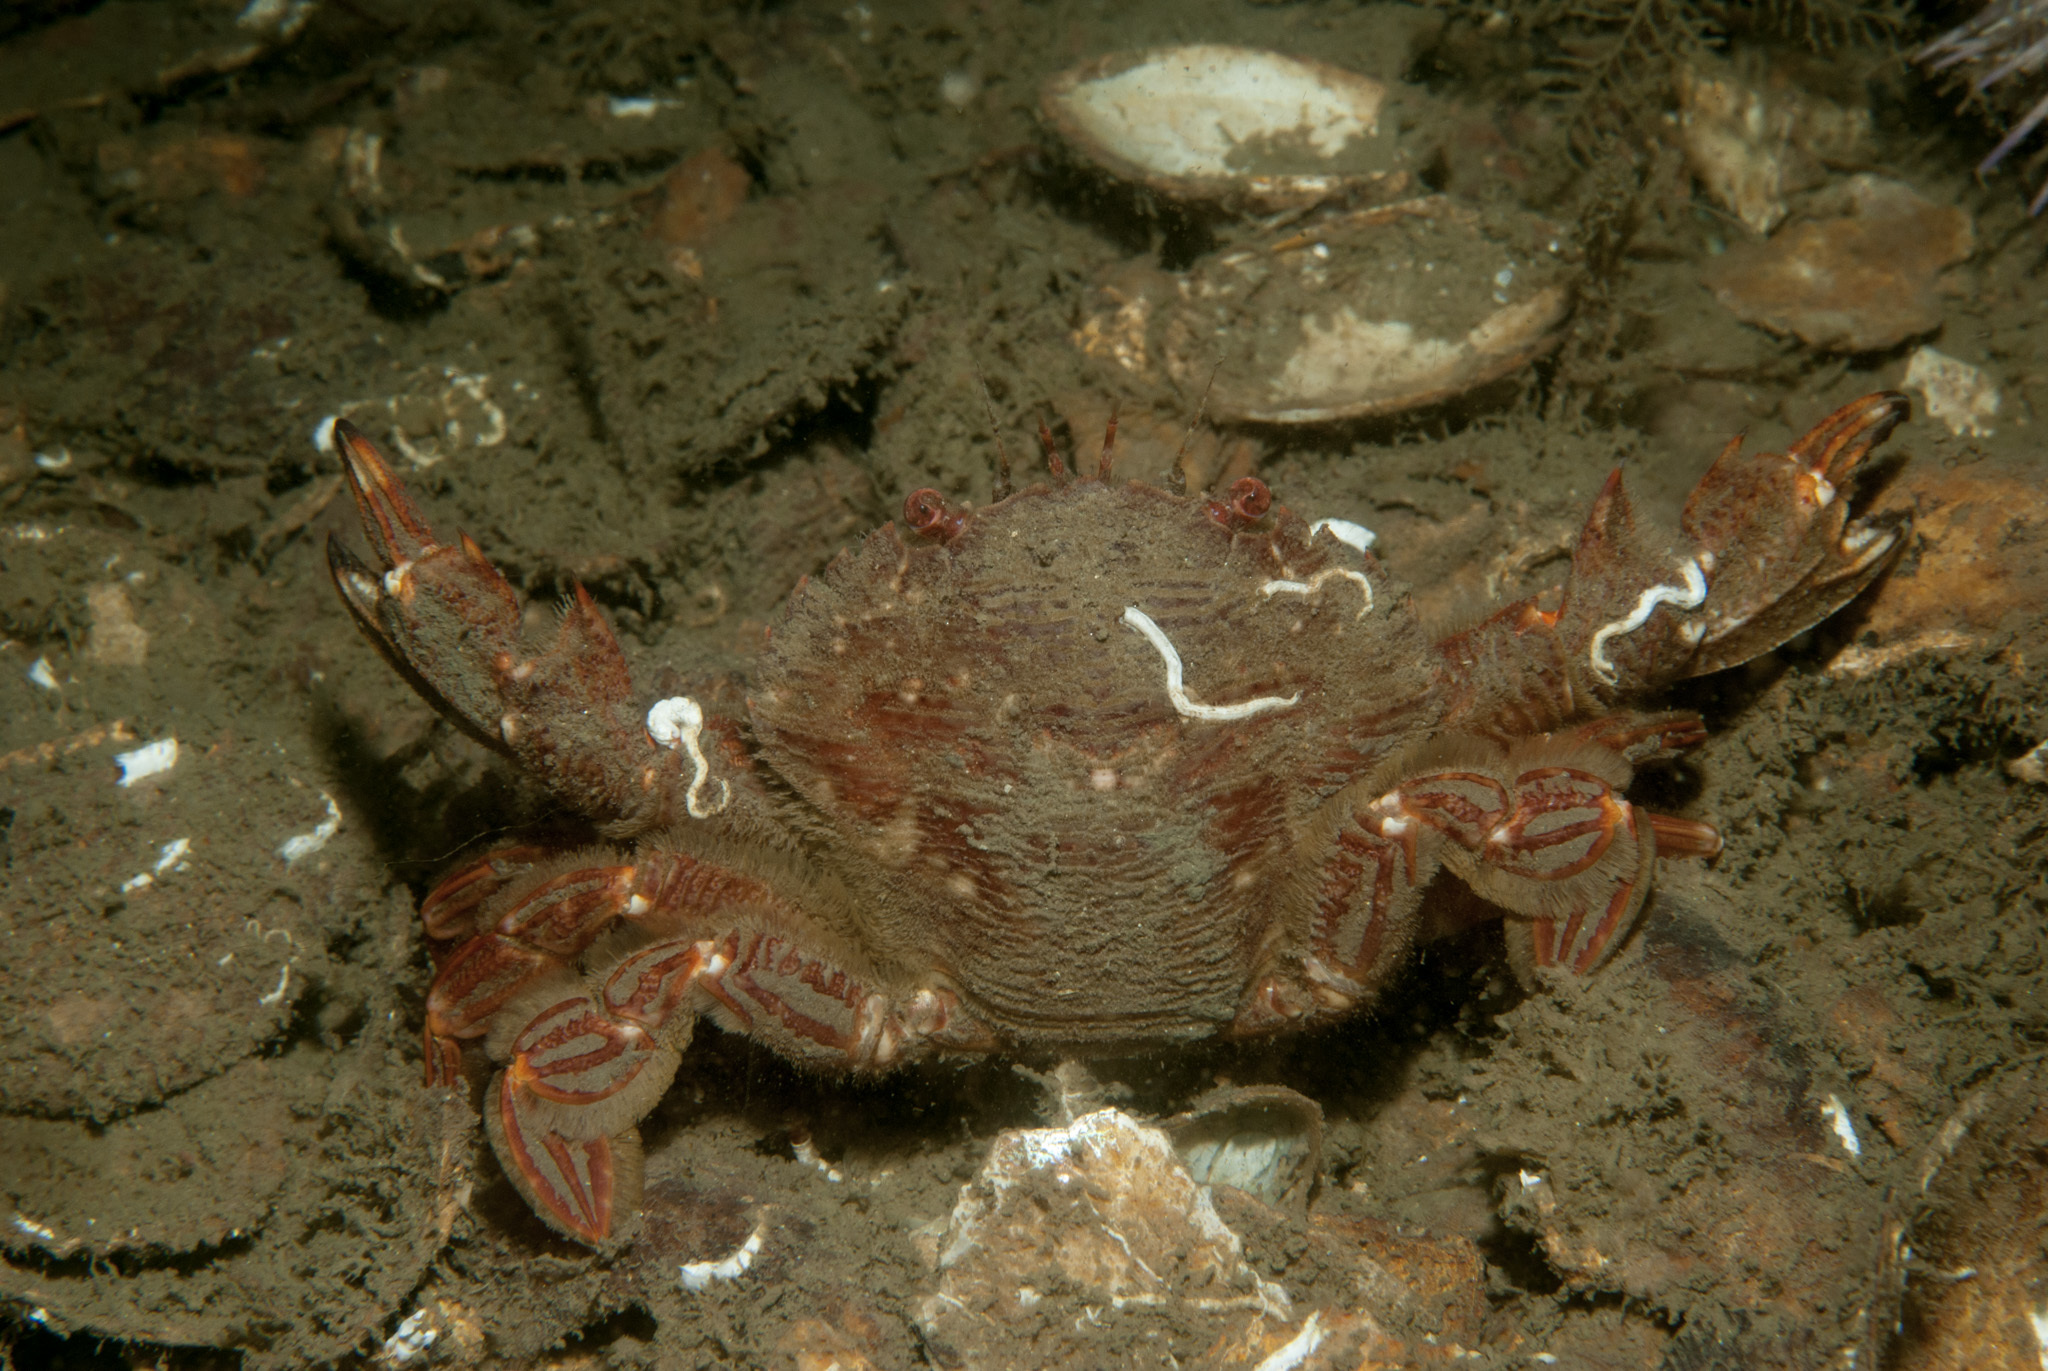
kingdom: Animalia
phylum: Arthropoda
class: Malacostraca
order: Decapoda
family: Polybiidae
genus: Liocarcinus
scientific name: Liocarcinus corrugatus
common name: Wrinkled swimming crab
